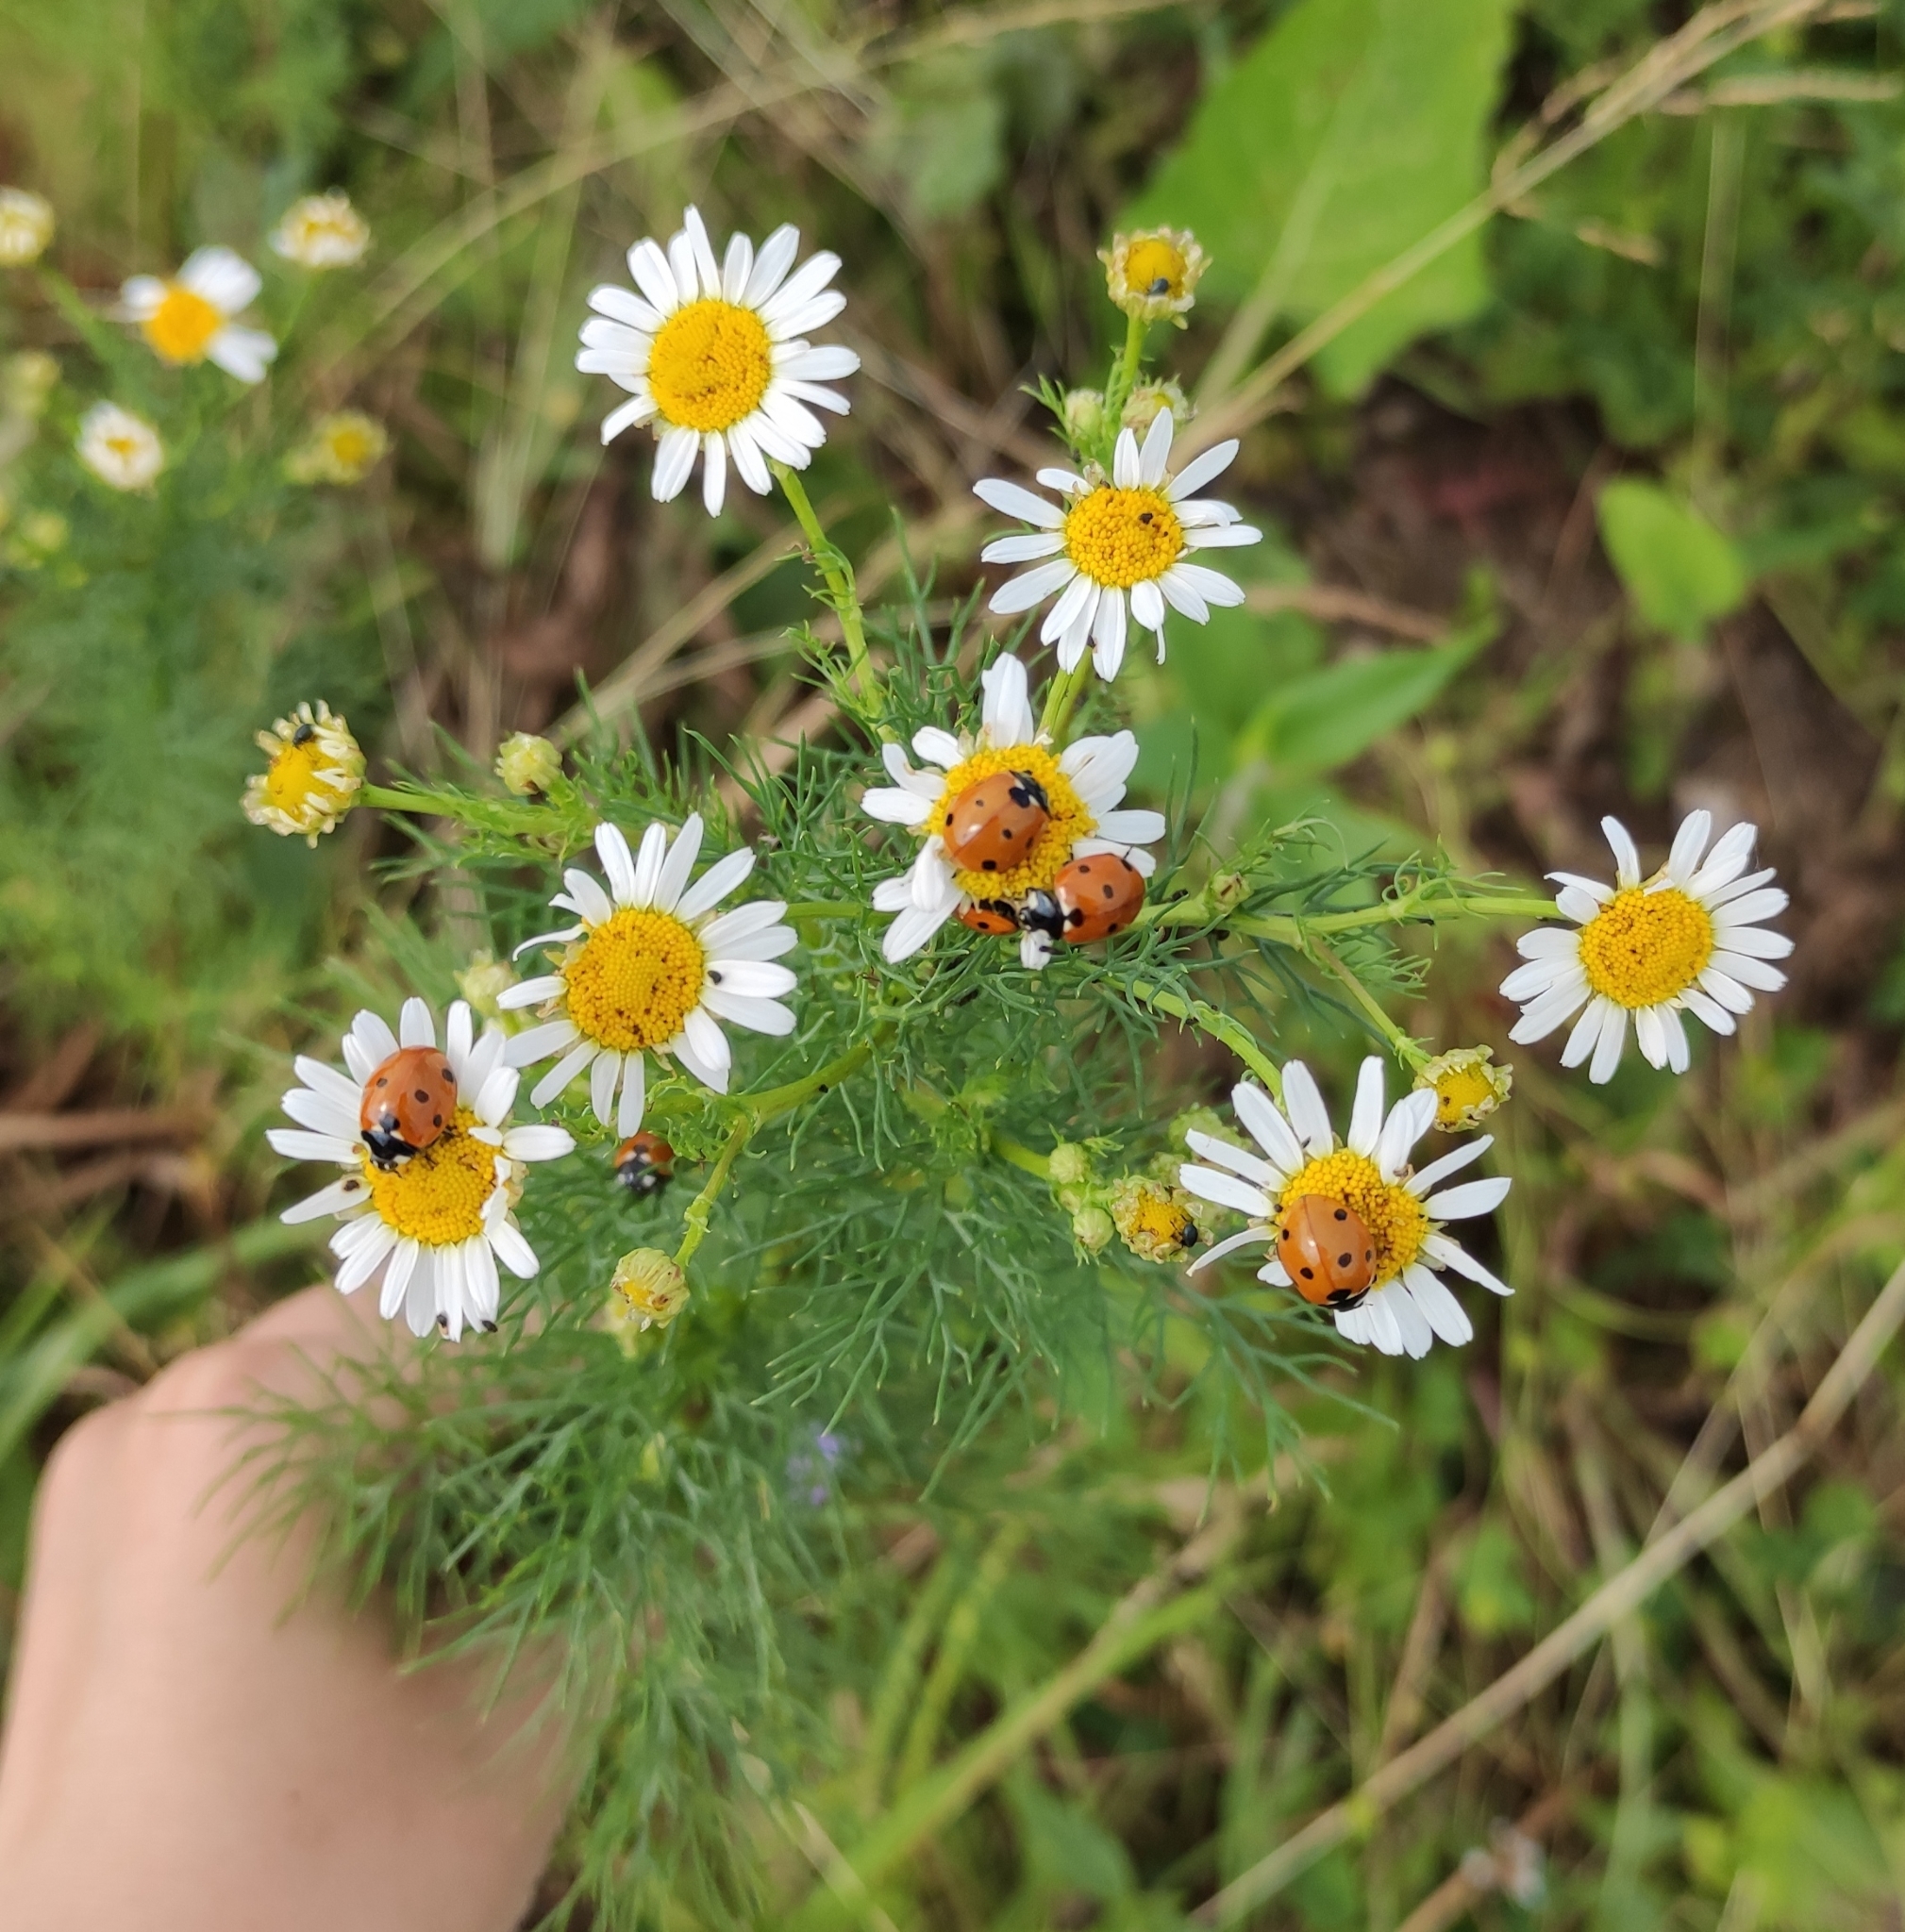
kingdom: Plantae
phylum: Tracheophyta
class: Magnoliopsida
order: Asterales
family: Asteraceae
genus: Tripleurospermum
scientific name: Tripleurospermum inodorum
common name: Scentless mayweed
